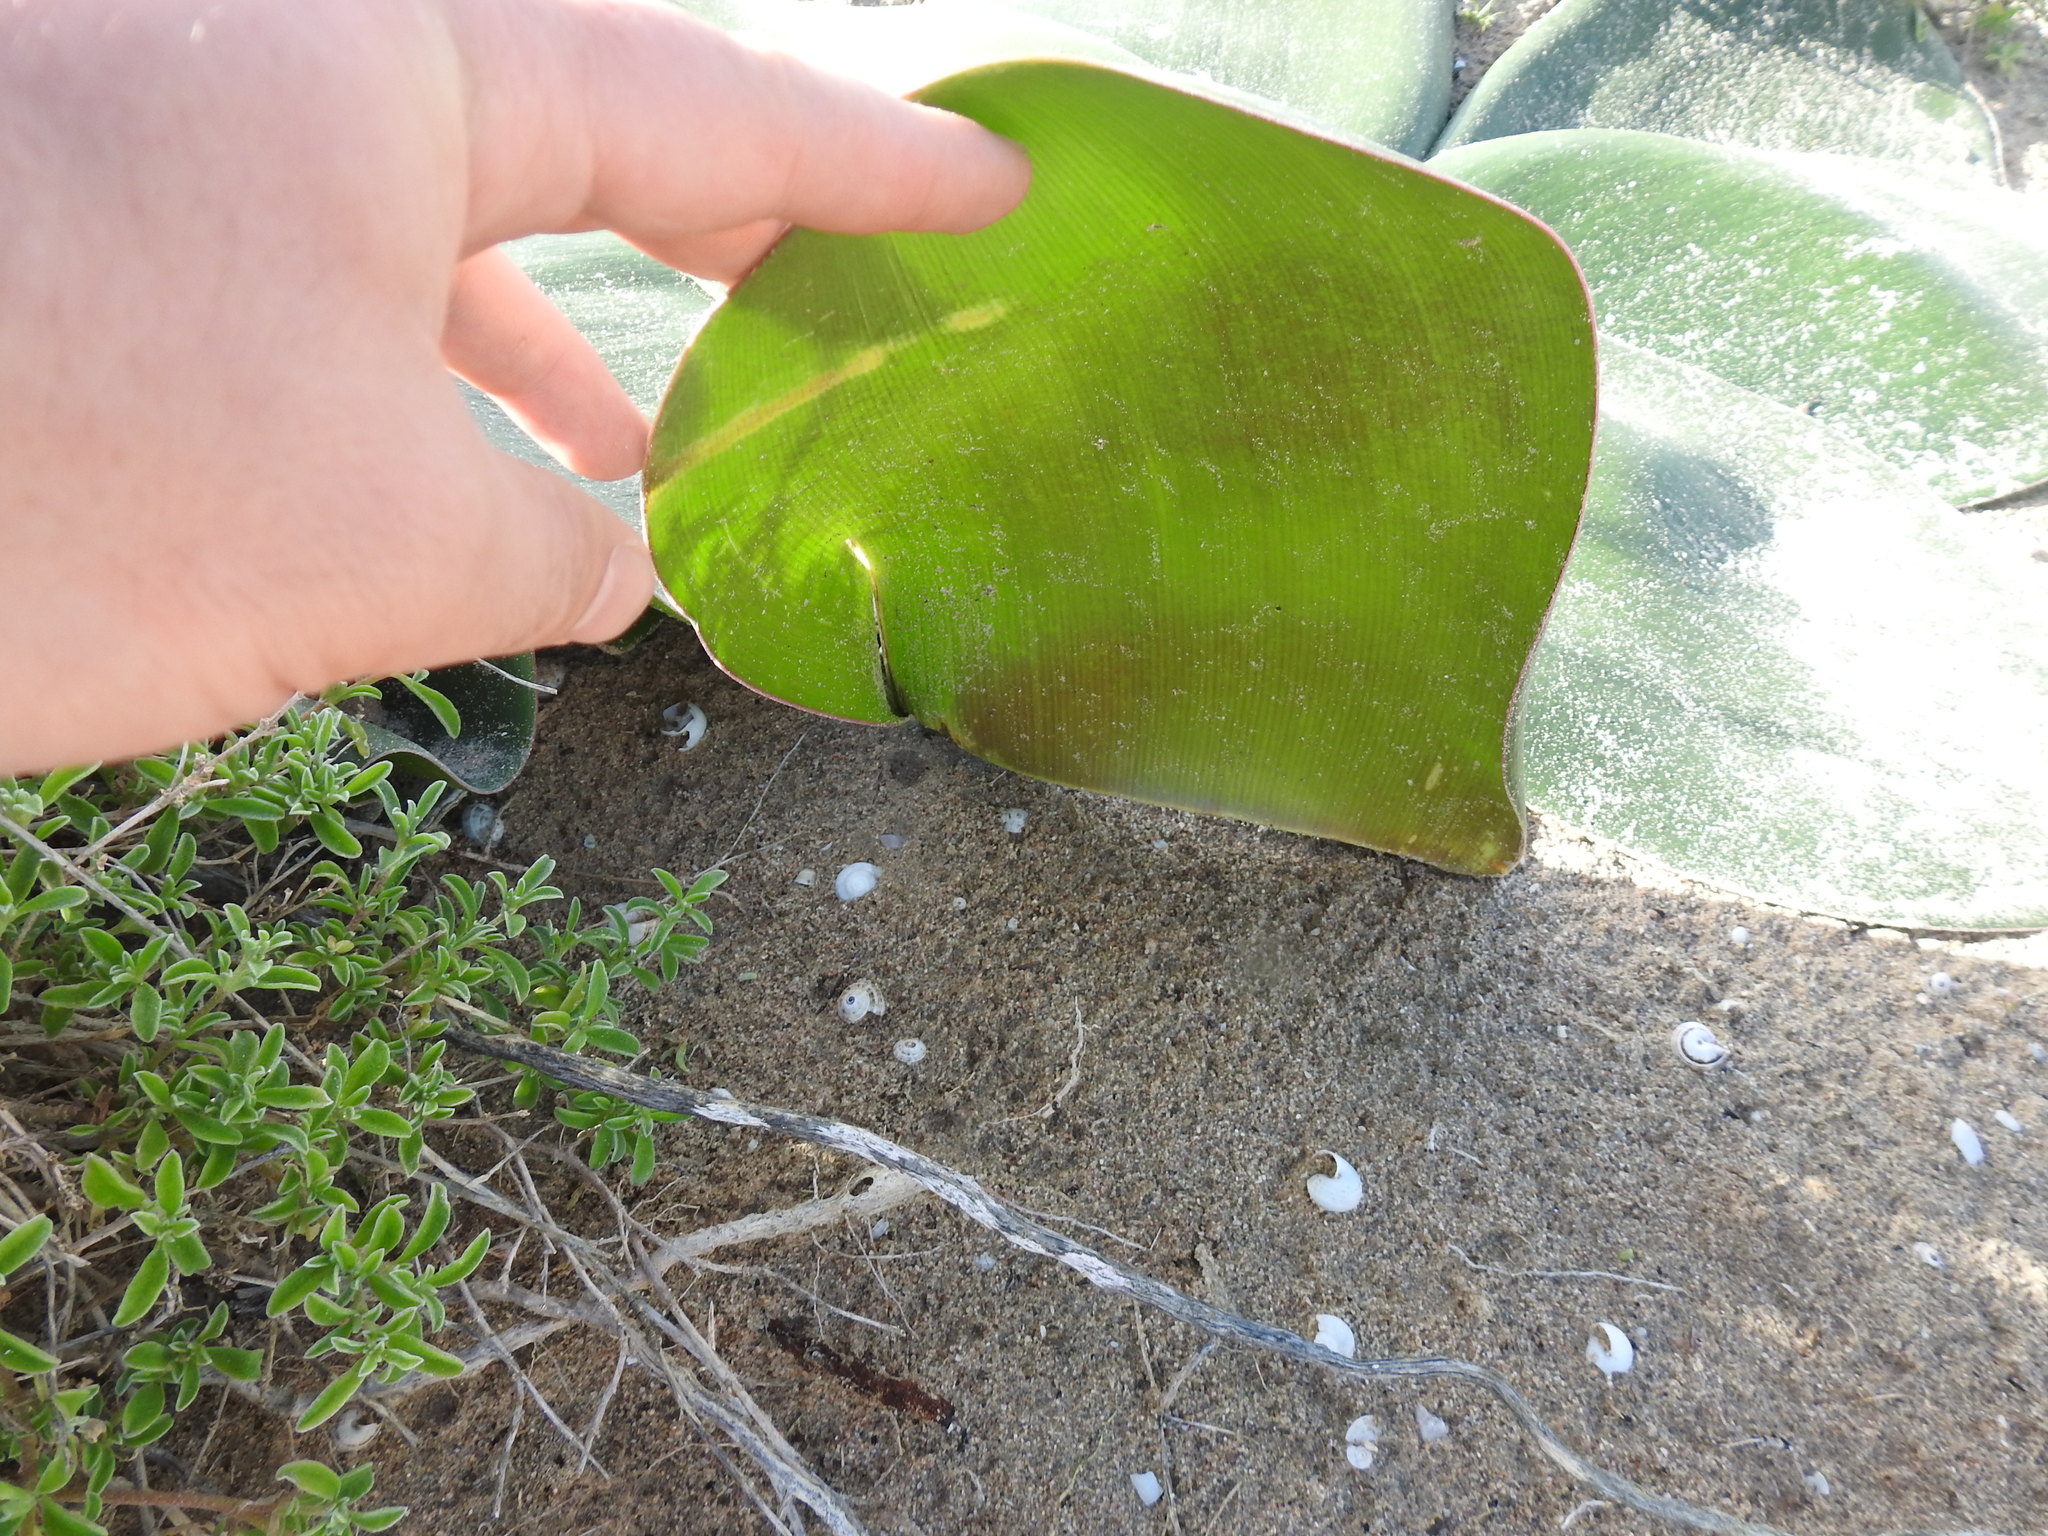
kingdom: Plantae
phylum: Tracheophyta
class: Liliopsida
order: Asparagales
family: Amaryllidaceae
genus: Brunsvigia
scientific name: Brunsvigia orientalis
